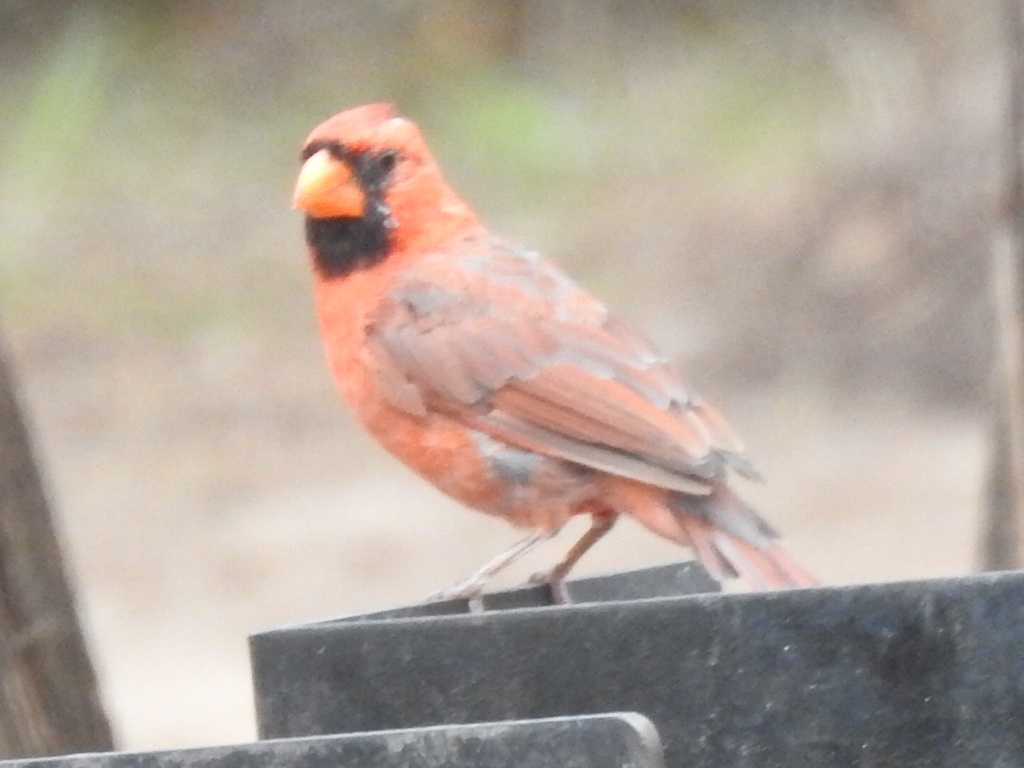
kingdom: Animalia
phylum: Chordata
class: Aves
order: Passeriformes
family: Cardinalidae
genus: Cardinalis
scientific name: Cardinalis cardinalis
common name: Northern cardinal
